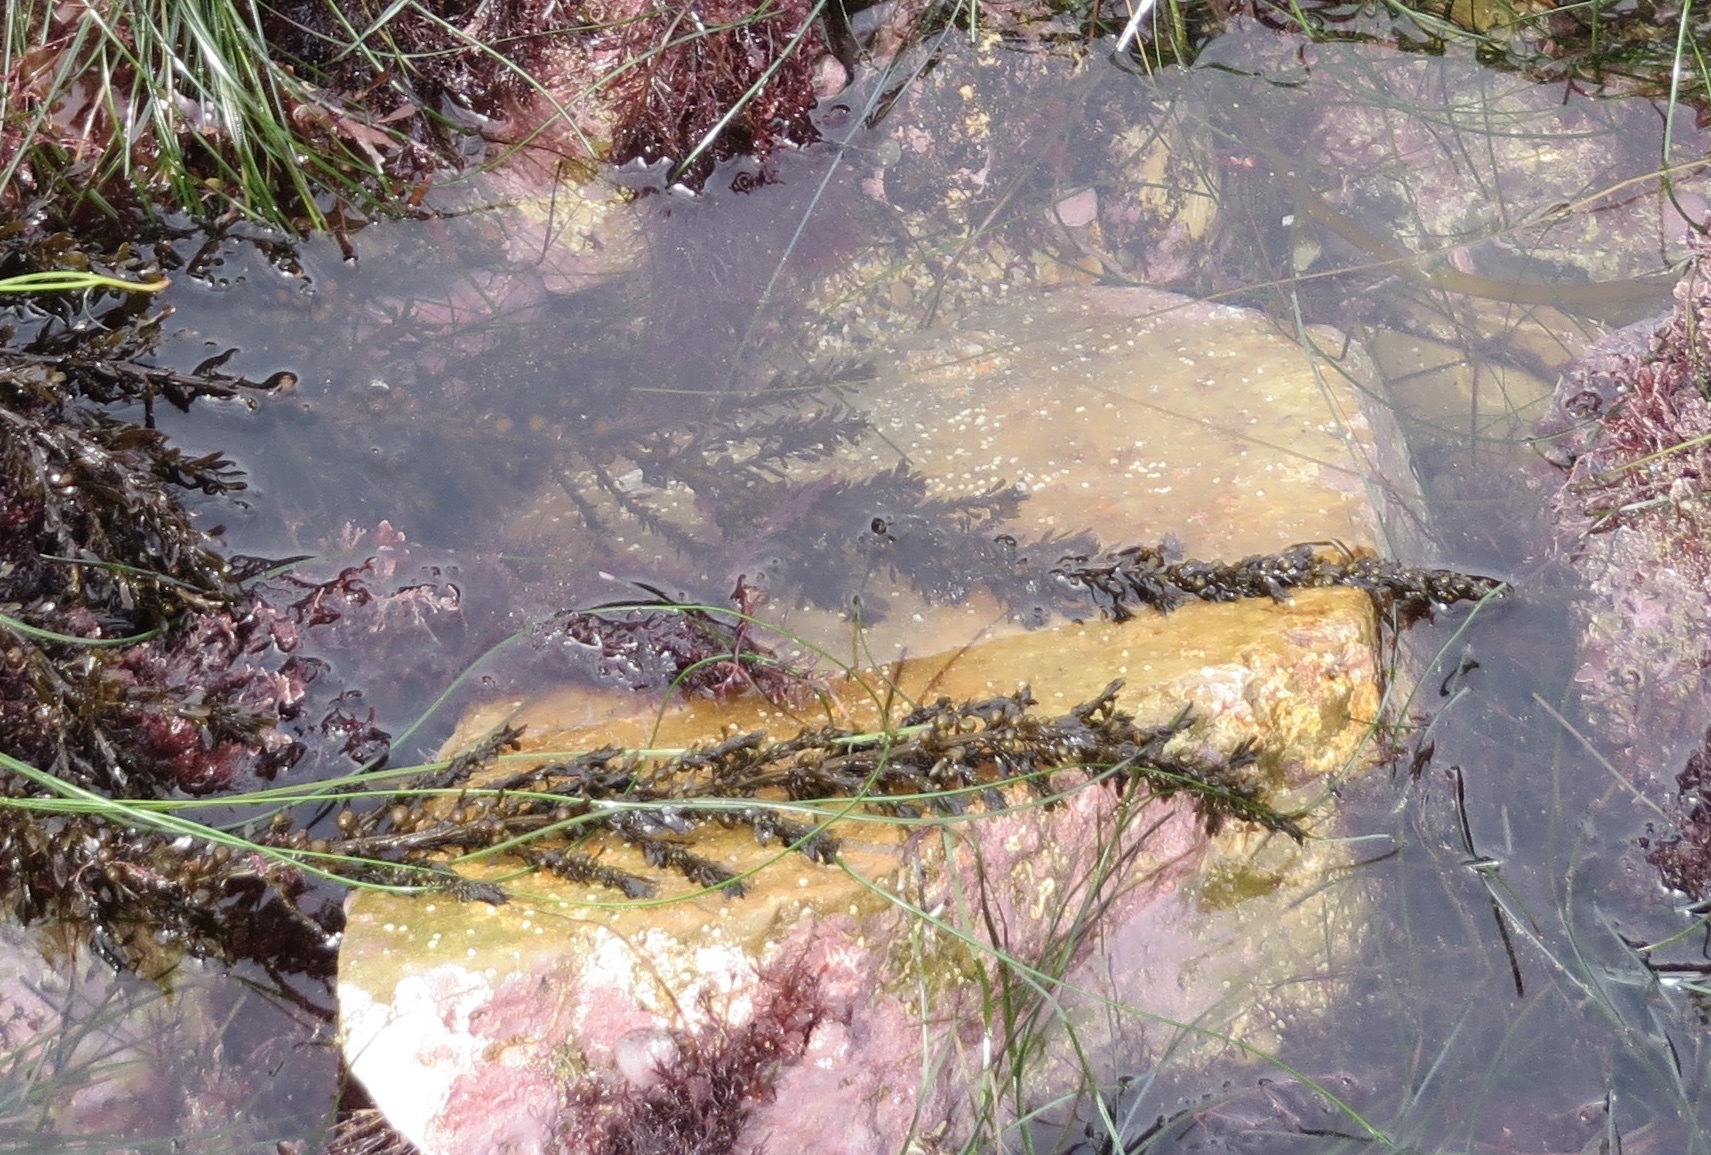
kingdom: Chromista
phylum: Ochrophyta
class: Phaeophyceae
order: Fucales
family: Sargassaceae
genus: Sargassum
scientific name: Sargassum muticum
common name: Japweed
